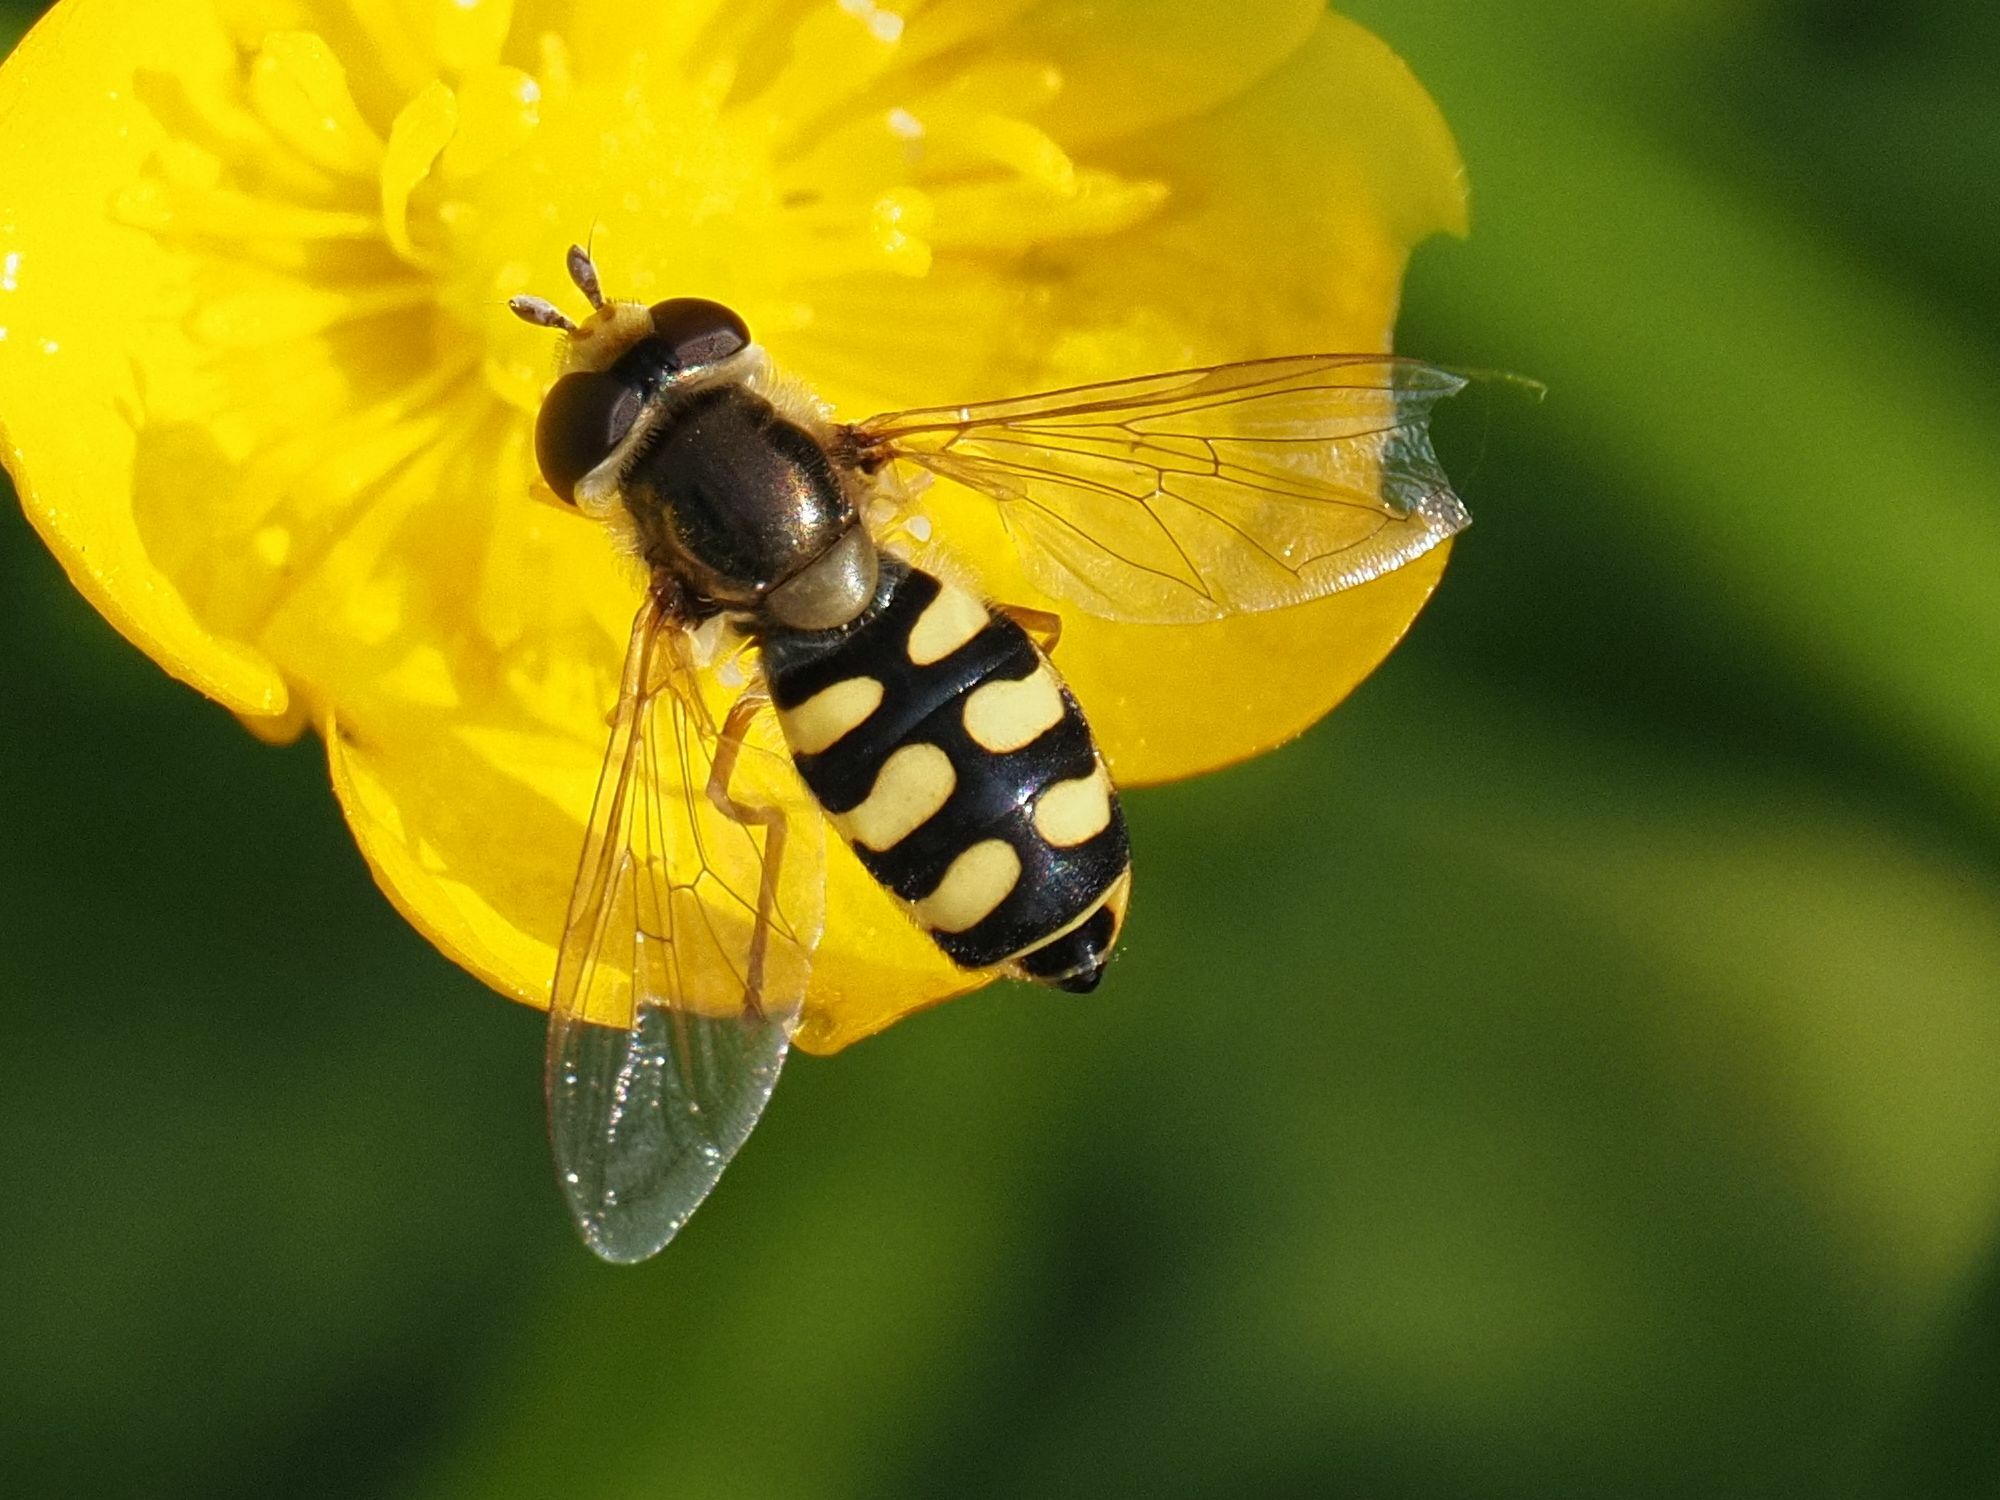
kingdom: Animalia
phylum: Arthropoda
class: Insecta
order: Diptera
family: Syrphidae
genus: Eupeodes
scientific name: Eupeodes corollae
